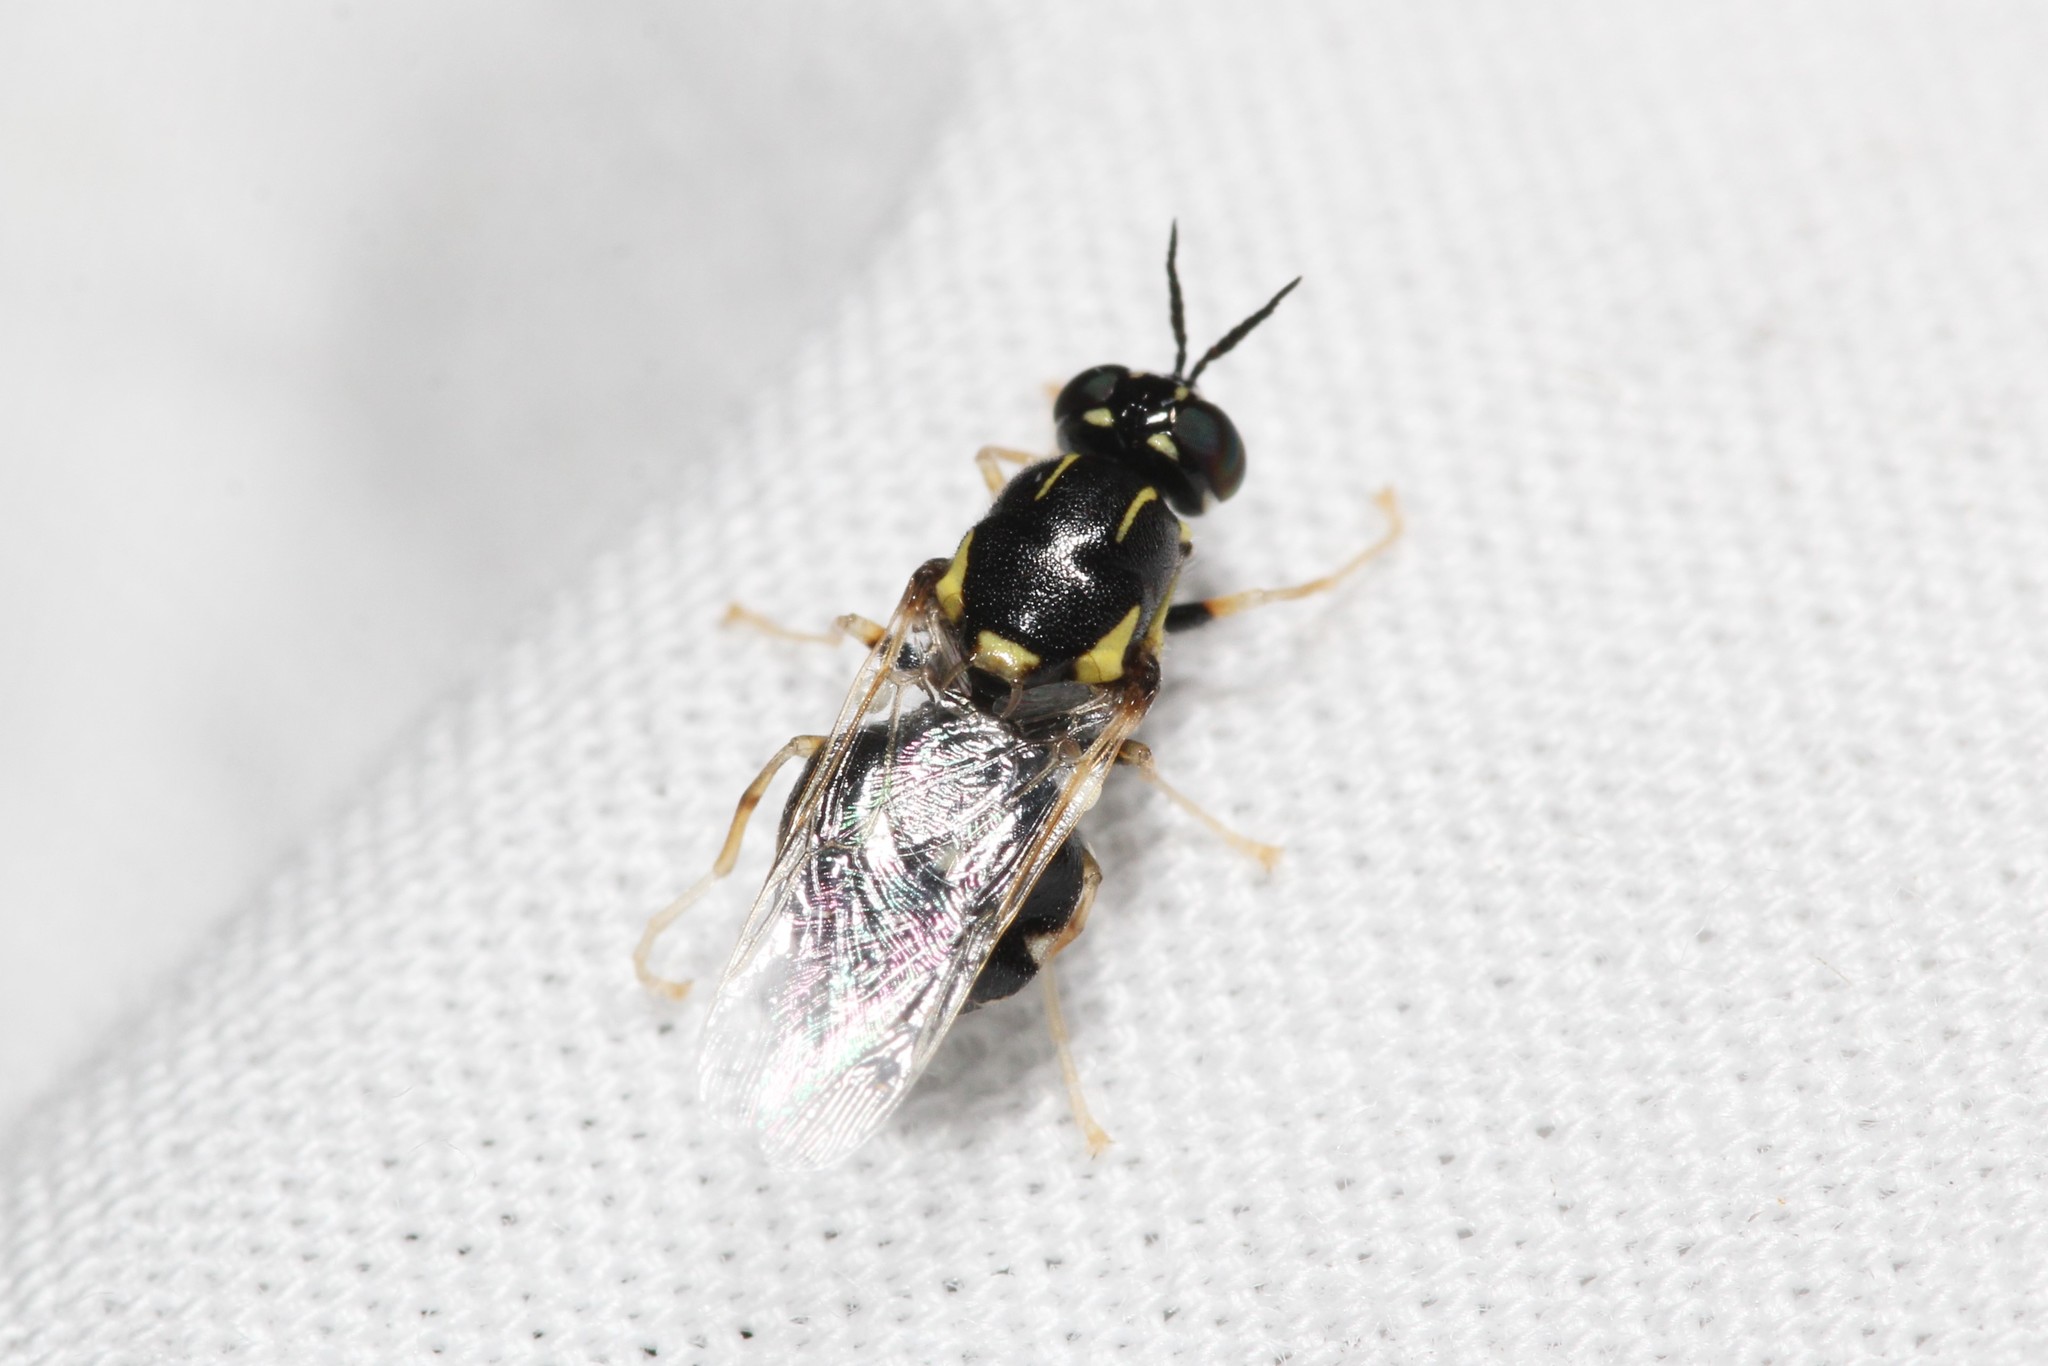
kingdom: Animalia
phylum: Arthropoda
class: Insecta
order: Diptera
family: Stratiomyidae
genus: Caloparyphus
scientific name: Caloparyphus tetraspilus
